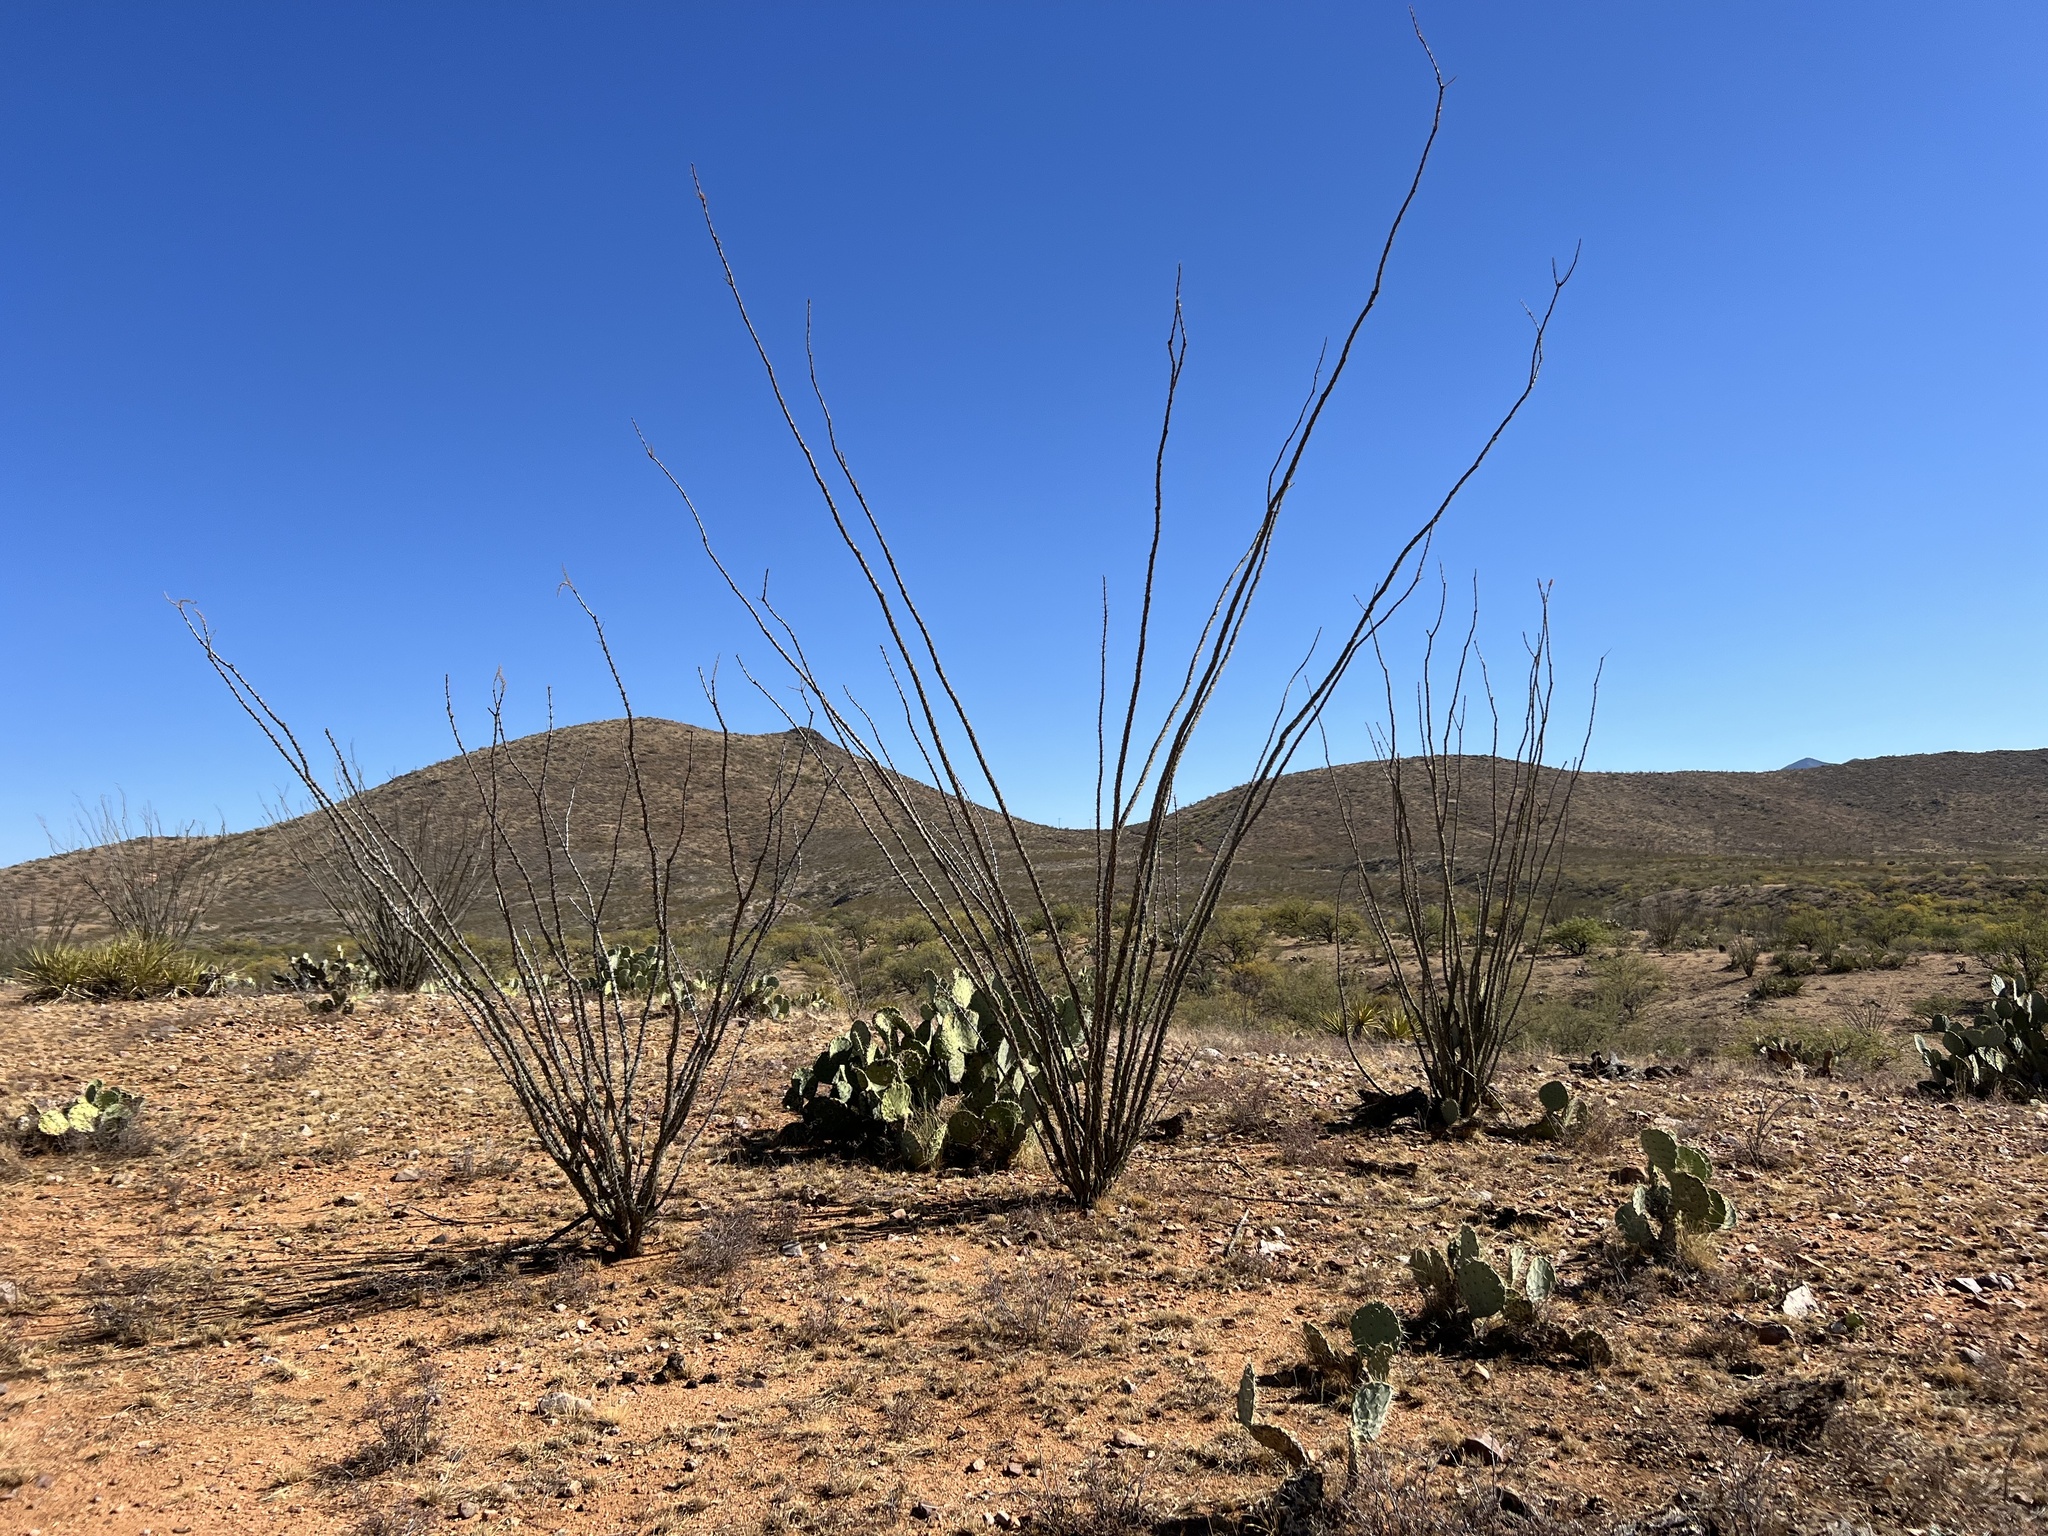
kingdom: Plantae
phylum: Tracheophyta
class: Magnoliopsida
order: Ericales
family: Fouquieriaceae
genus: Fouquieria
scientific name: Fouquieria splendens
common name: Vine-cactus
